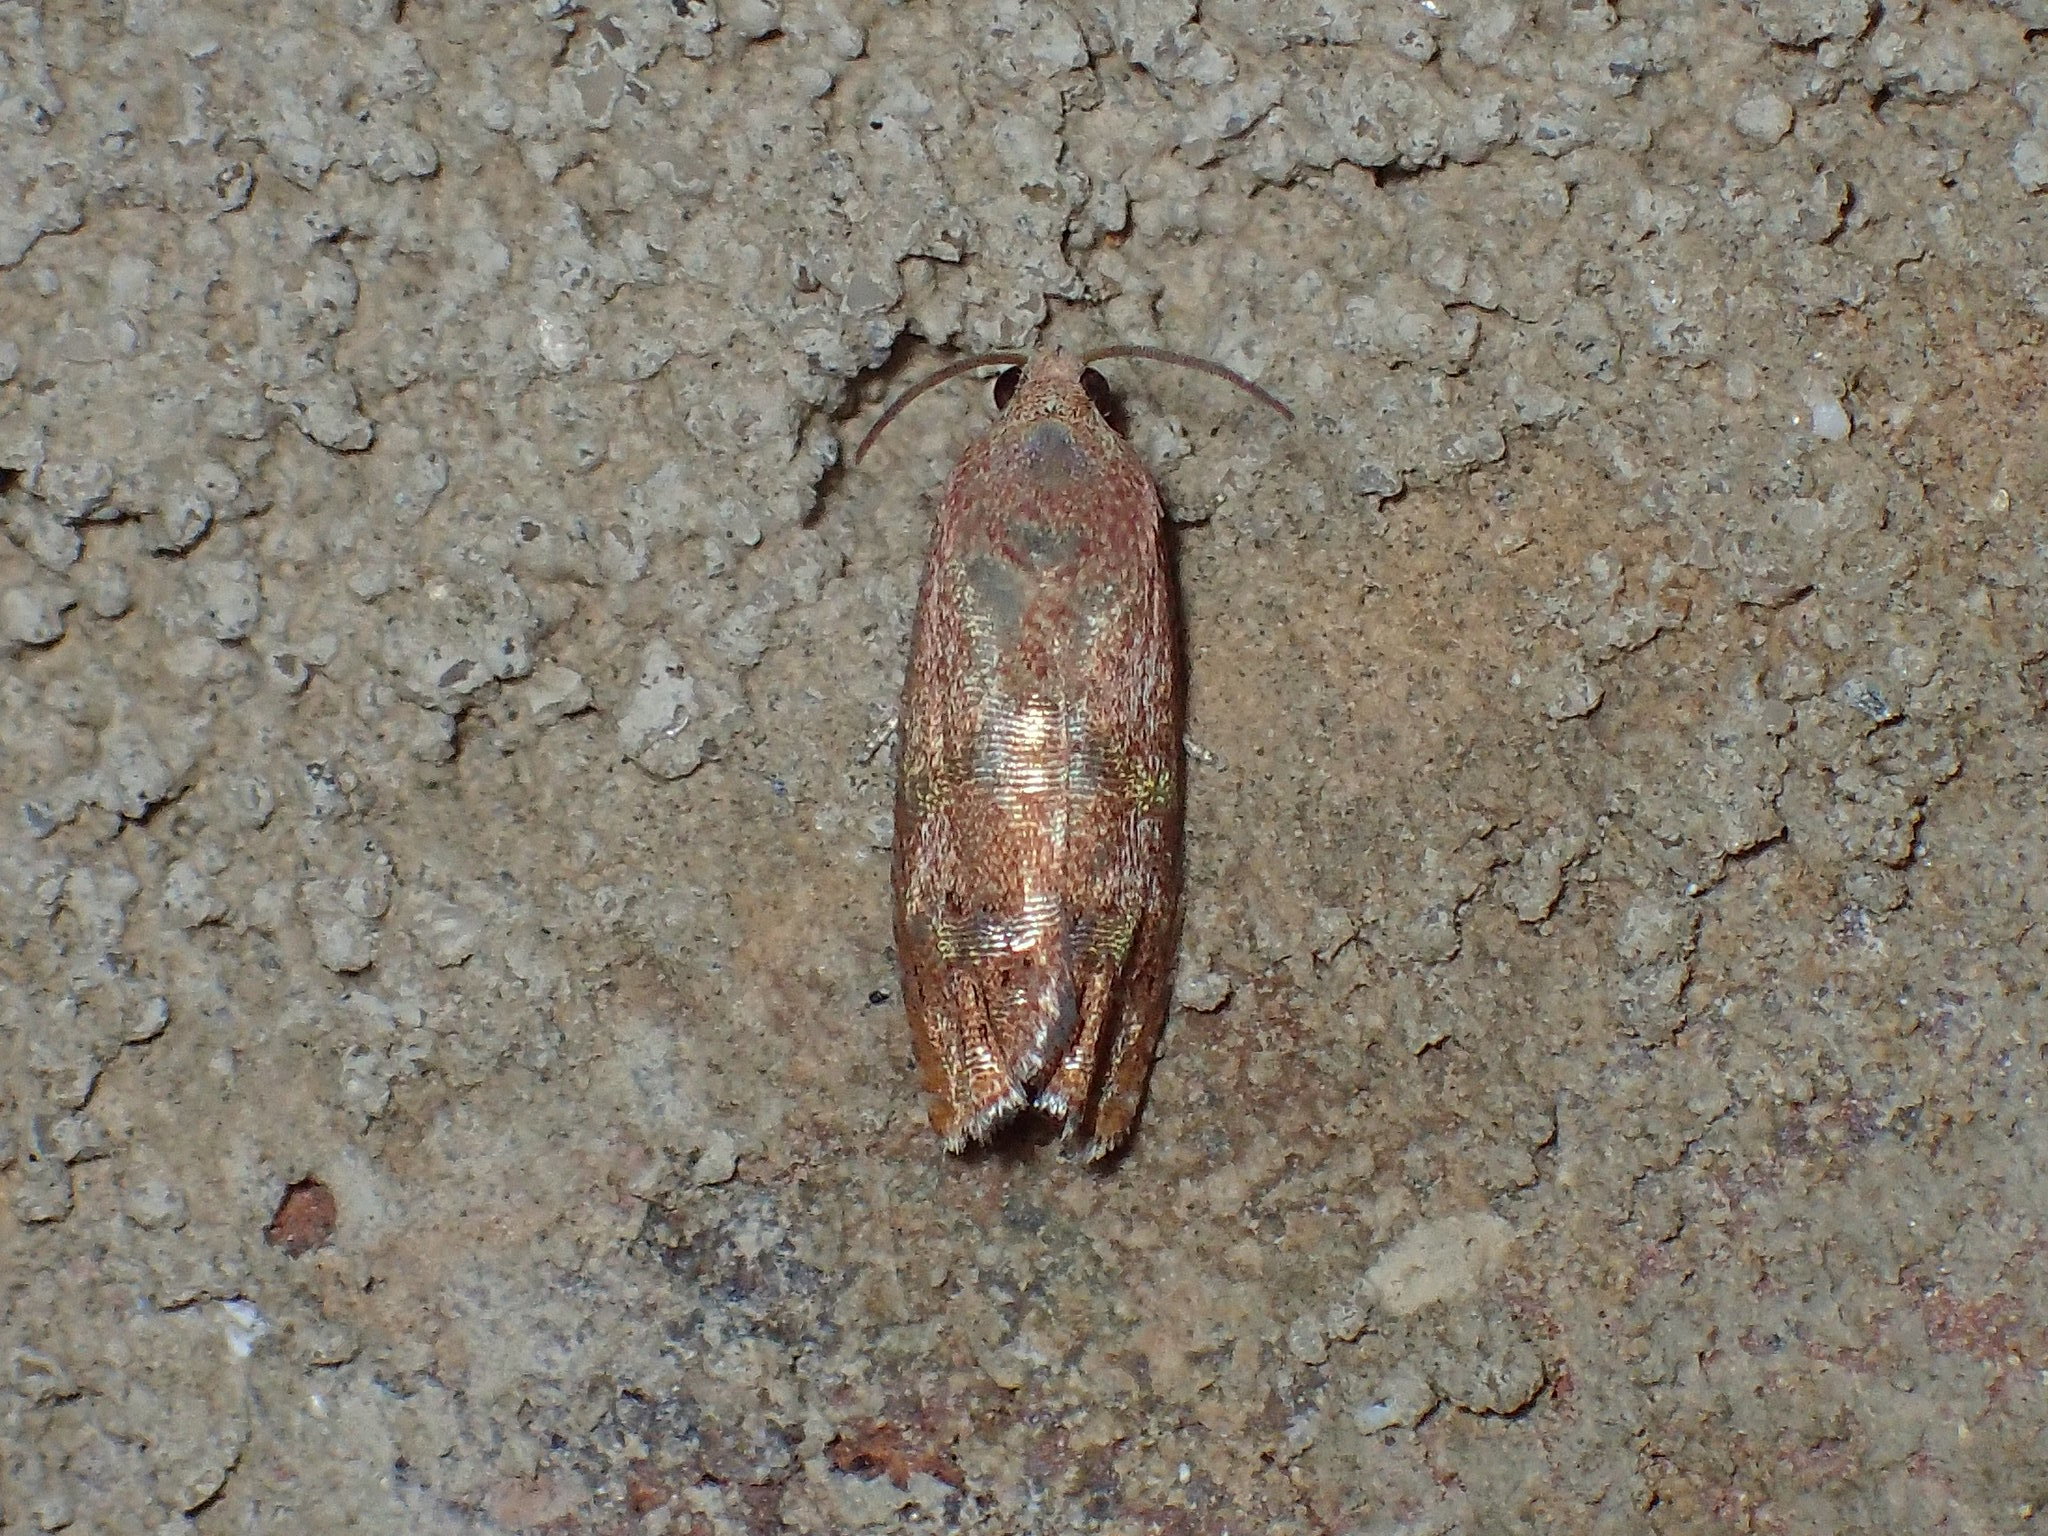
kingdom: Animalia
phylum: Arthropoda
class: Insecta
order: Lepidoptera
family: Tortricidae
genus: Cydia
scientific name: Cydia latiferreana
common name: Filbertworm moth
